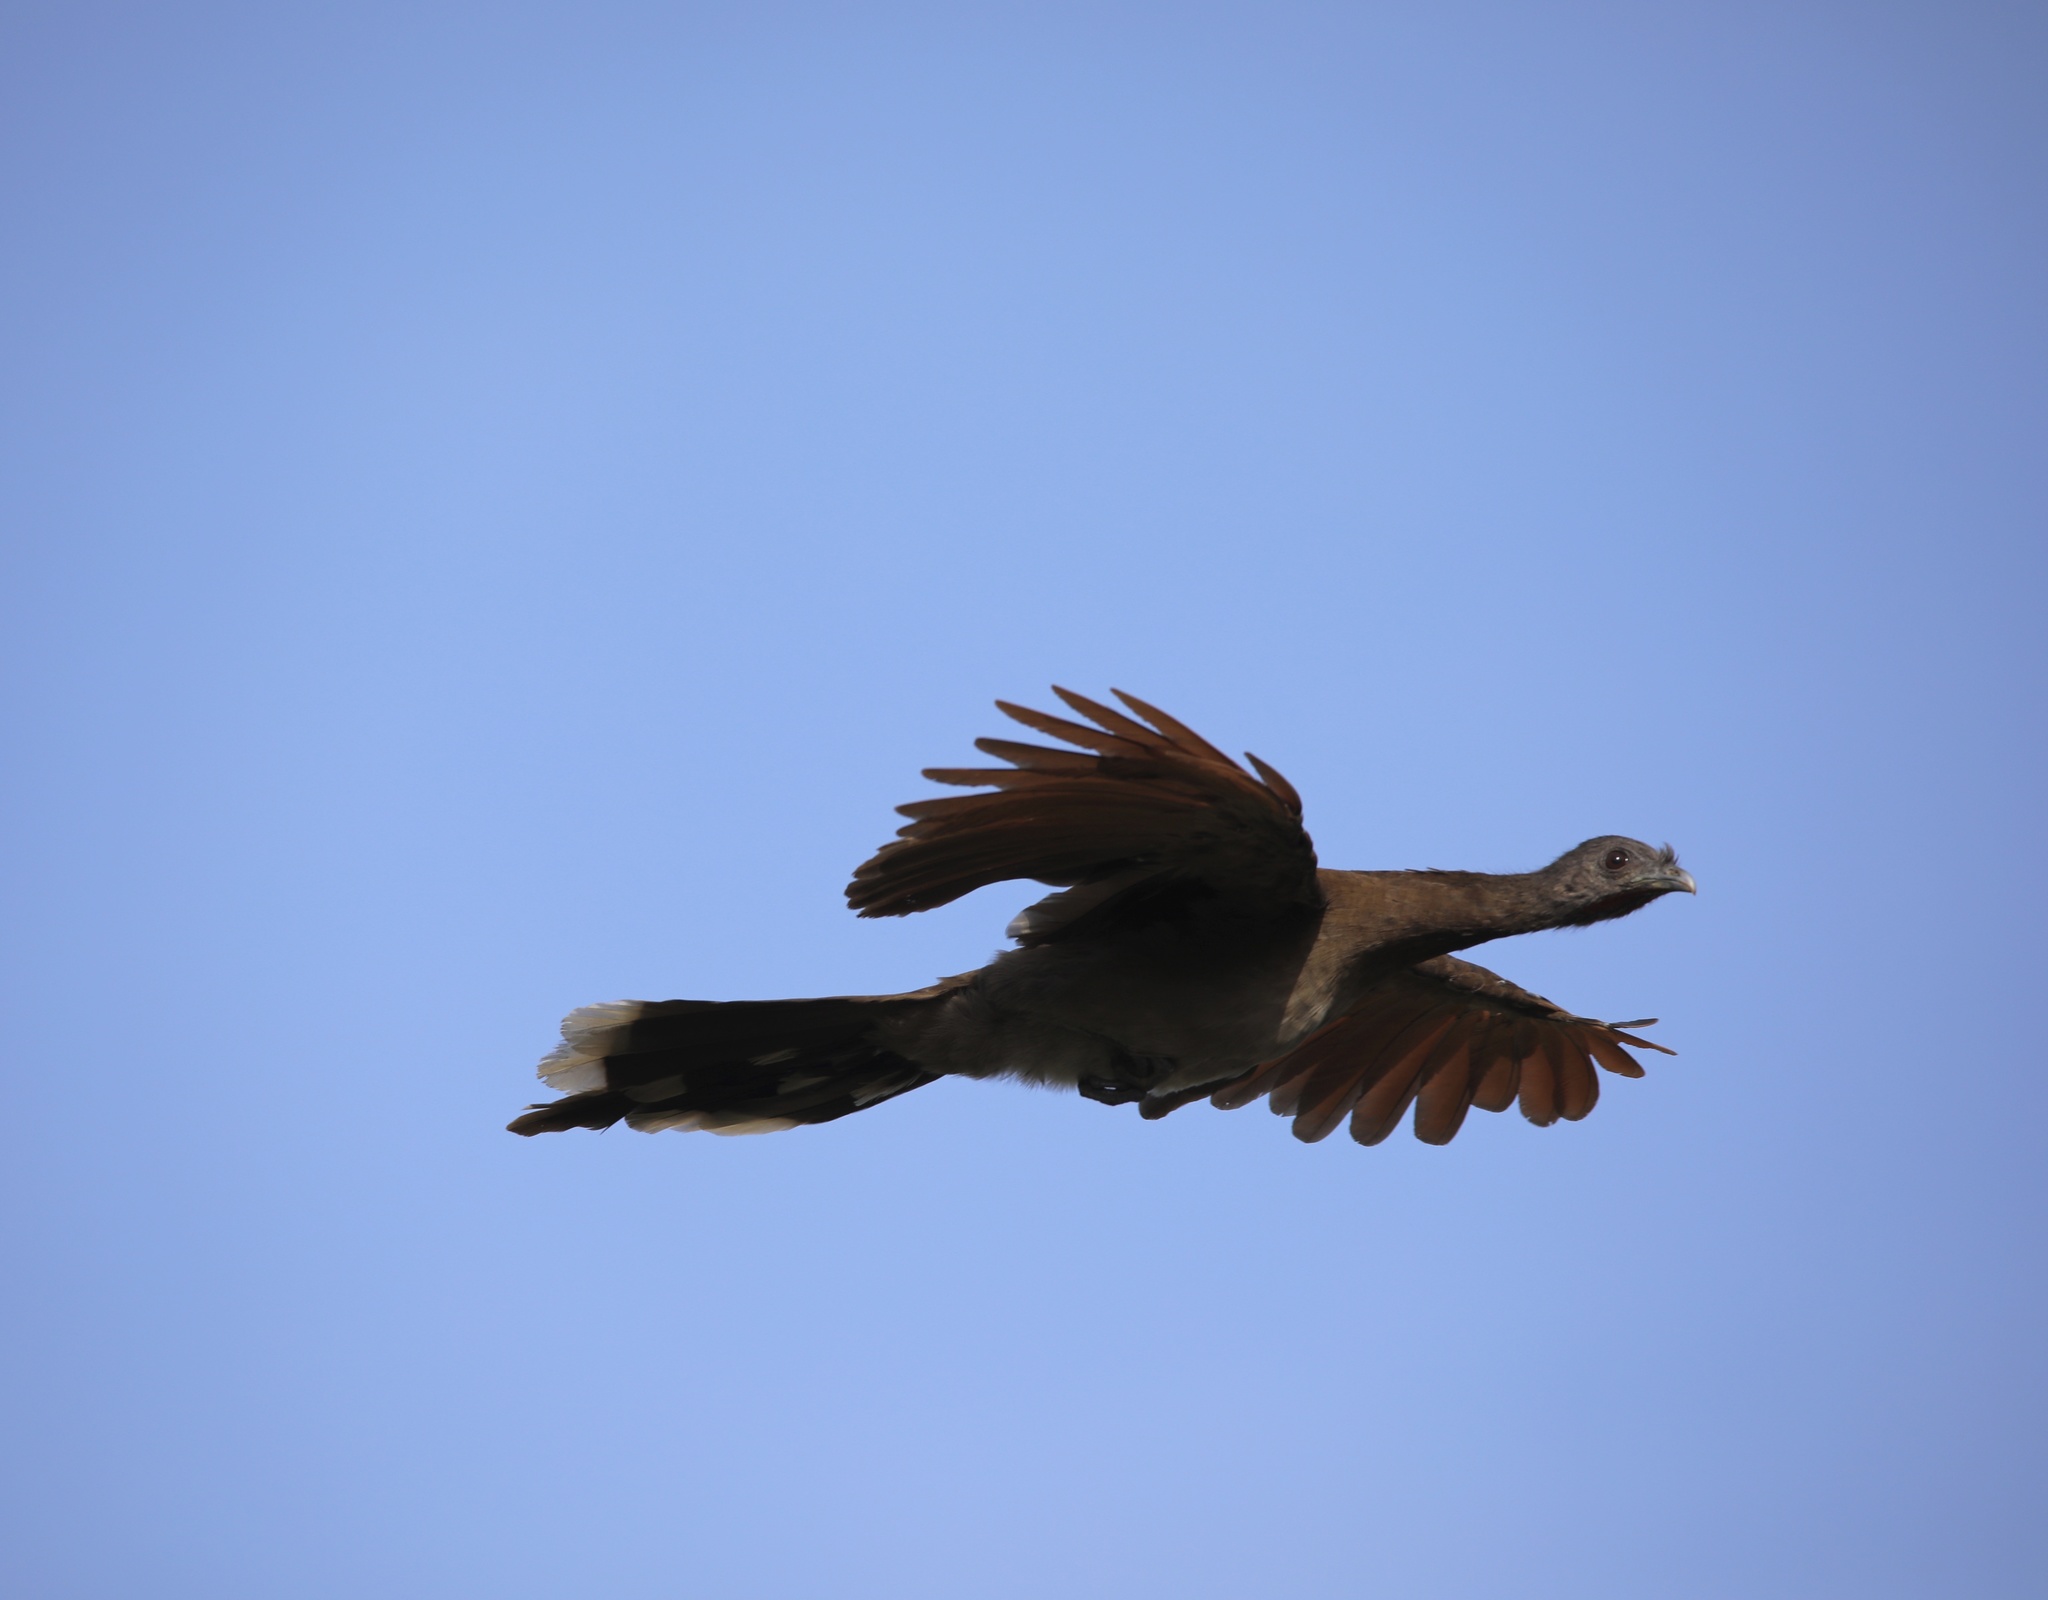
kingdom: Animalia
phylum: Chordata
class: Aves
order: Galliformes
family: Cracidae
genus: Ortalis
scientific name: Ortalis cinereiceps
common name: Grey-headed chachalaca
